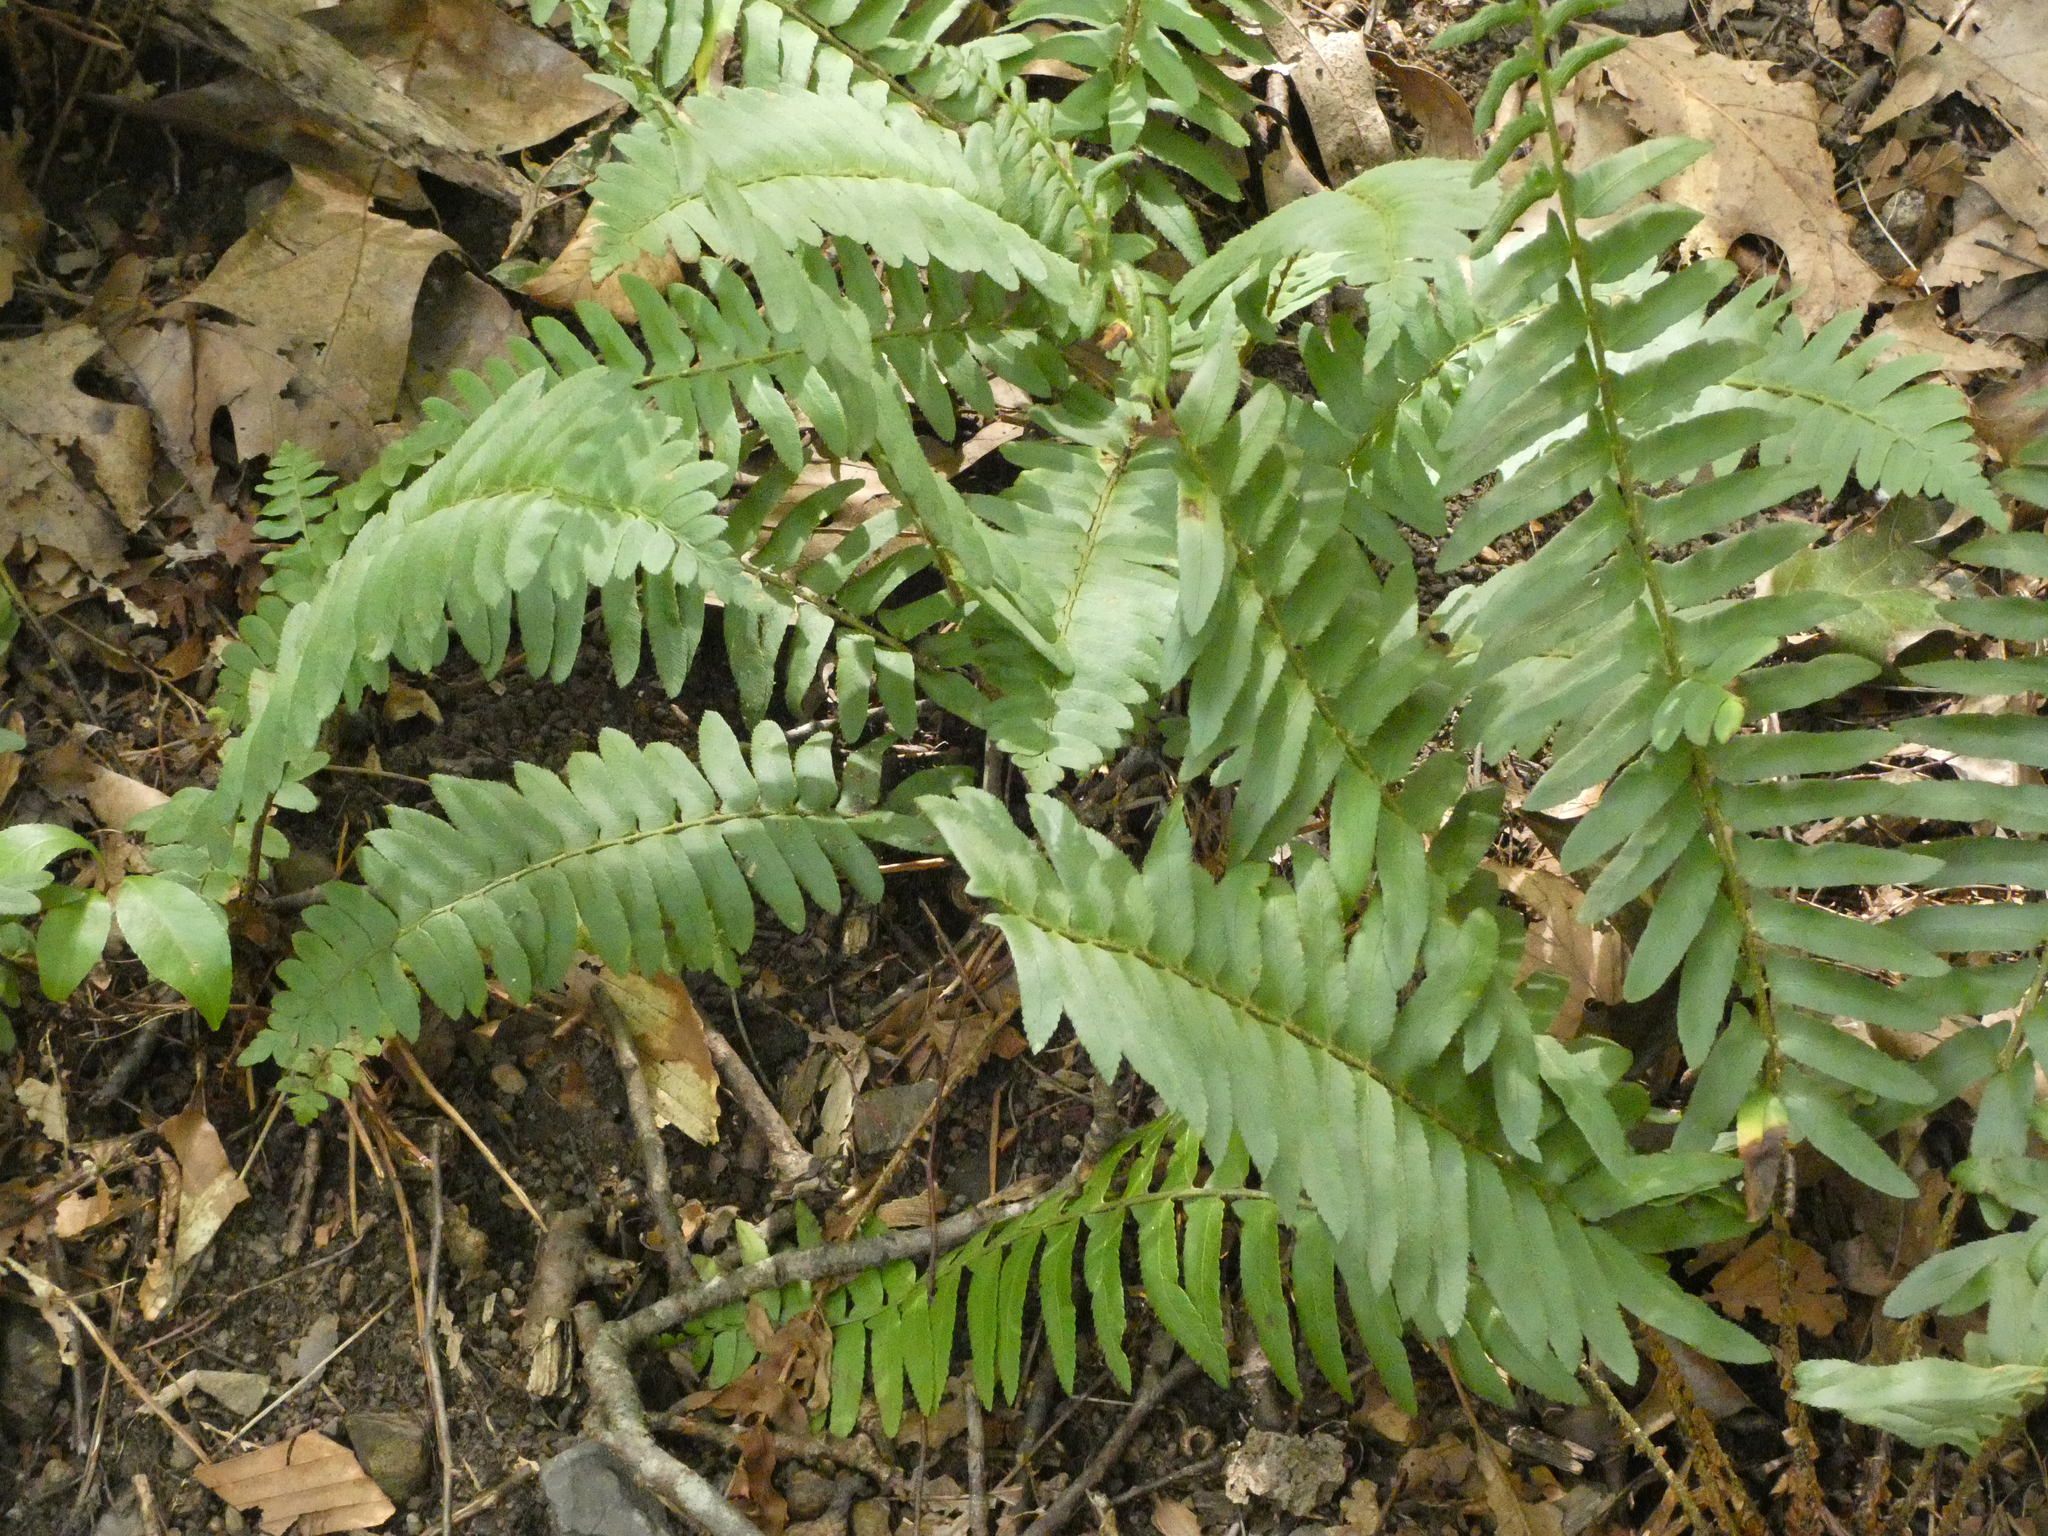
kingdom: Plantae
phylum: Tracheophyta
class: Polypodiopsida
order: Polypodiales
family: Dryopteridaceae
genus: Polystichum
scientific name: Polystichum acrostichoides
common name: Christmas fern
